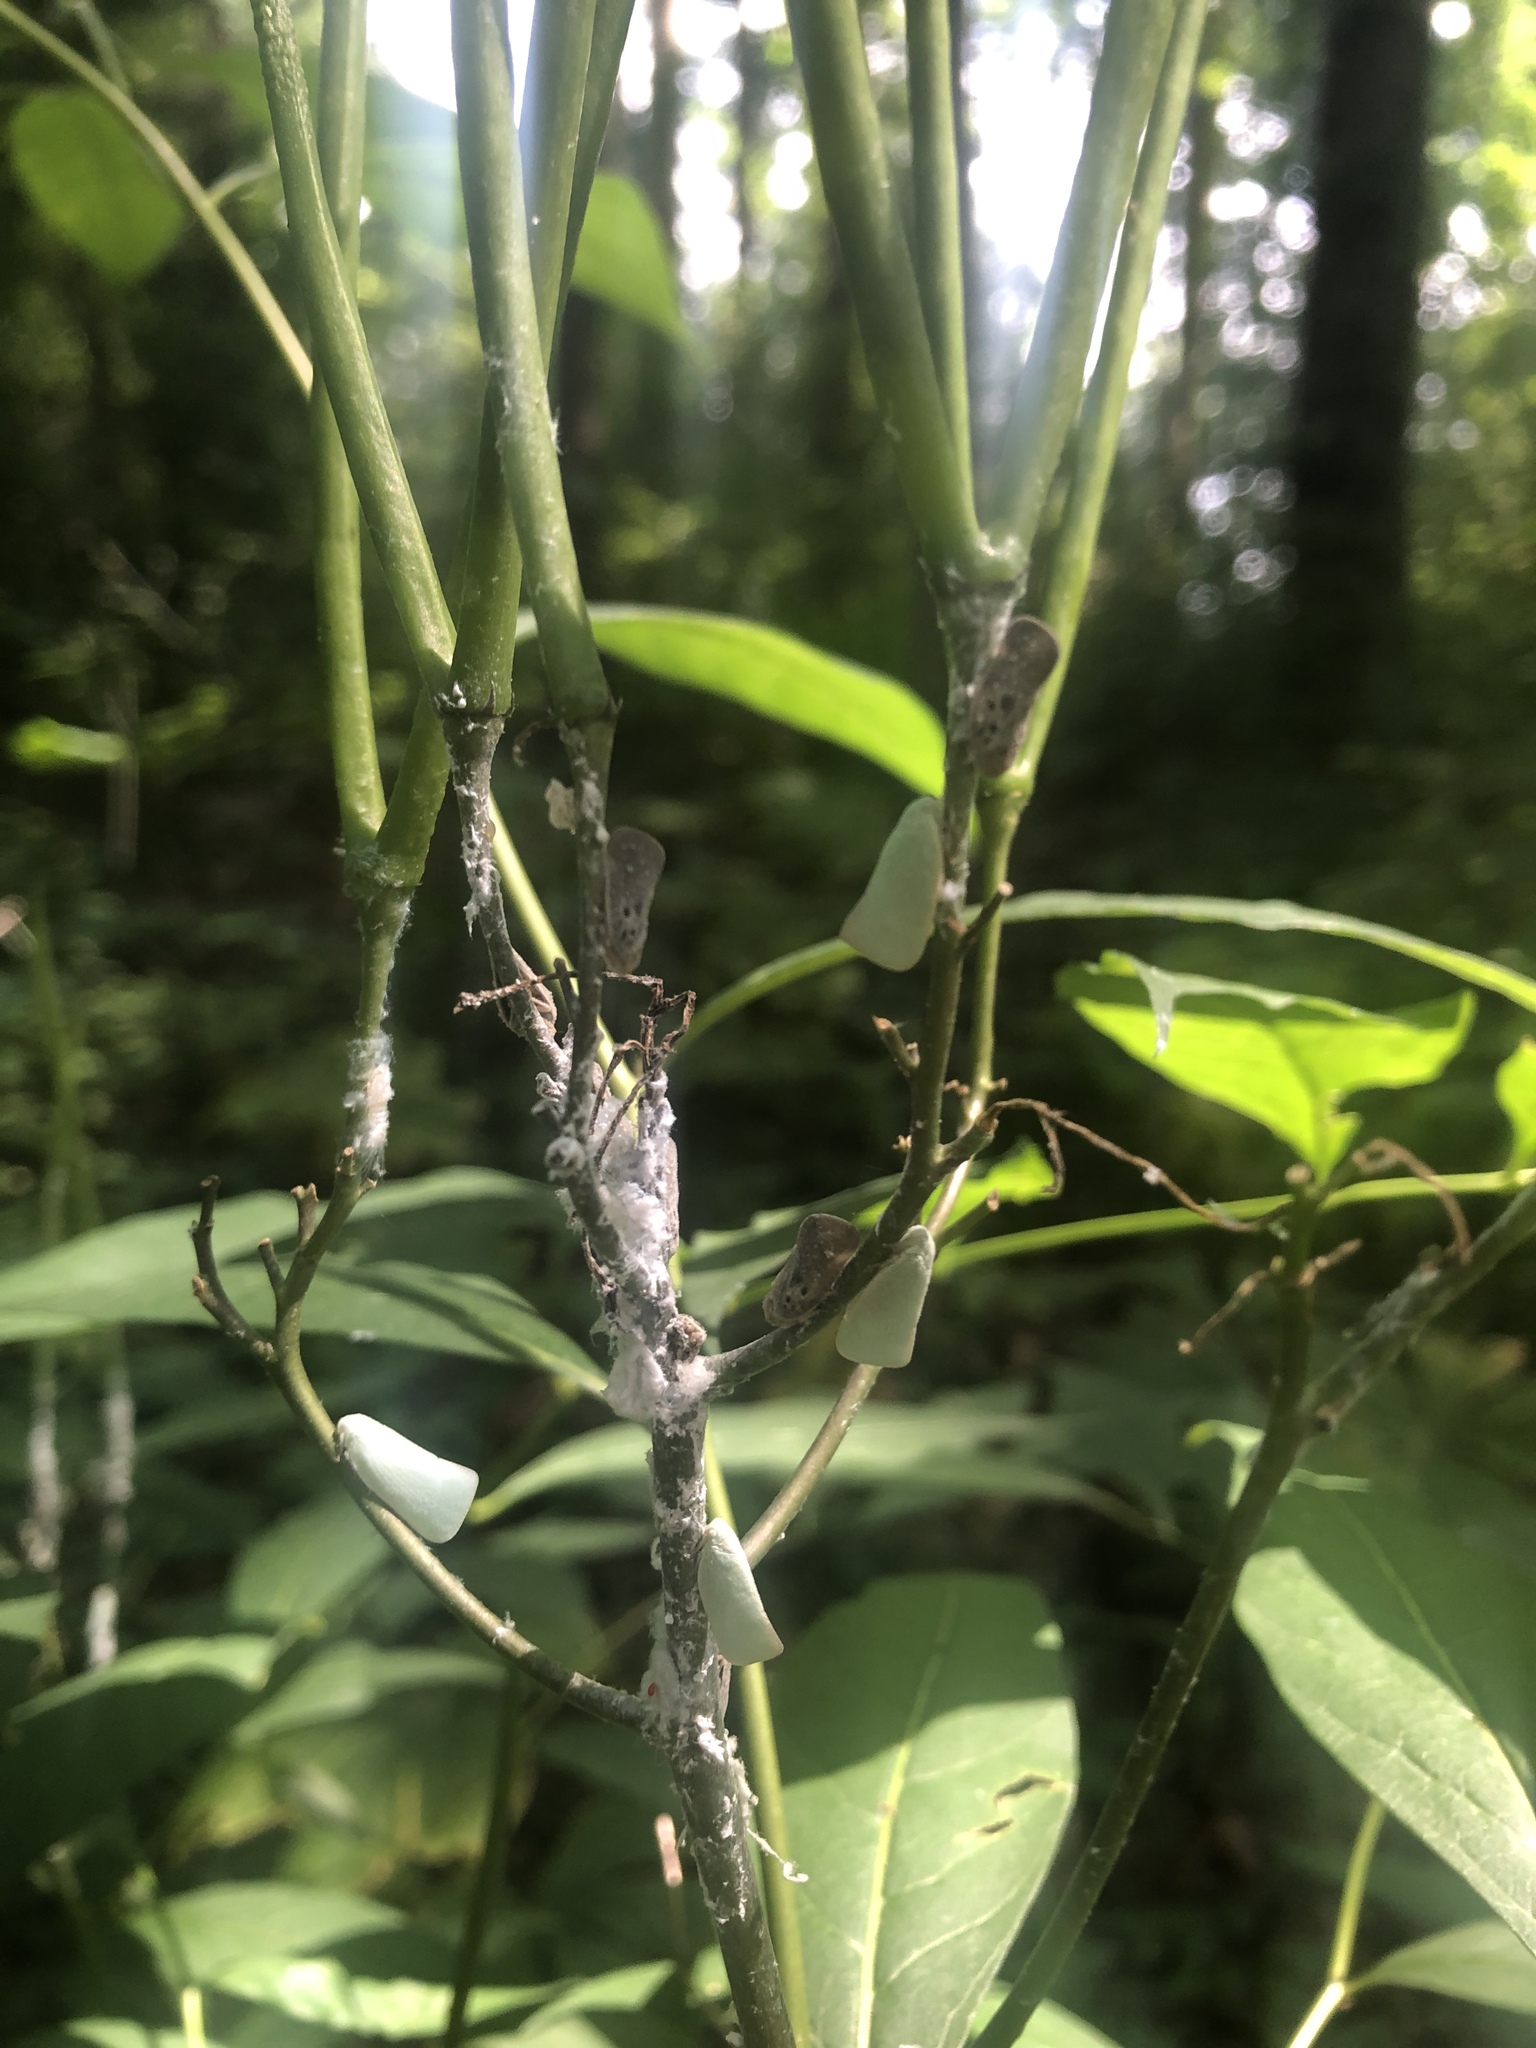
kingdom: Animalia
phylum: Arthropoda
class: Insecta
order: Hemiptera
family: Flatidae
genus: Metcalfa
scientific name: Metcalfa pruinosa
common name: Citrus flatid planthopper
